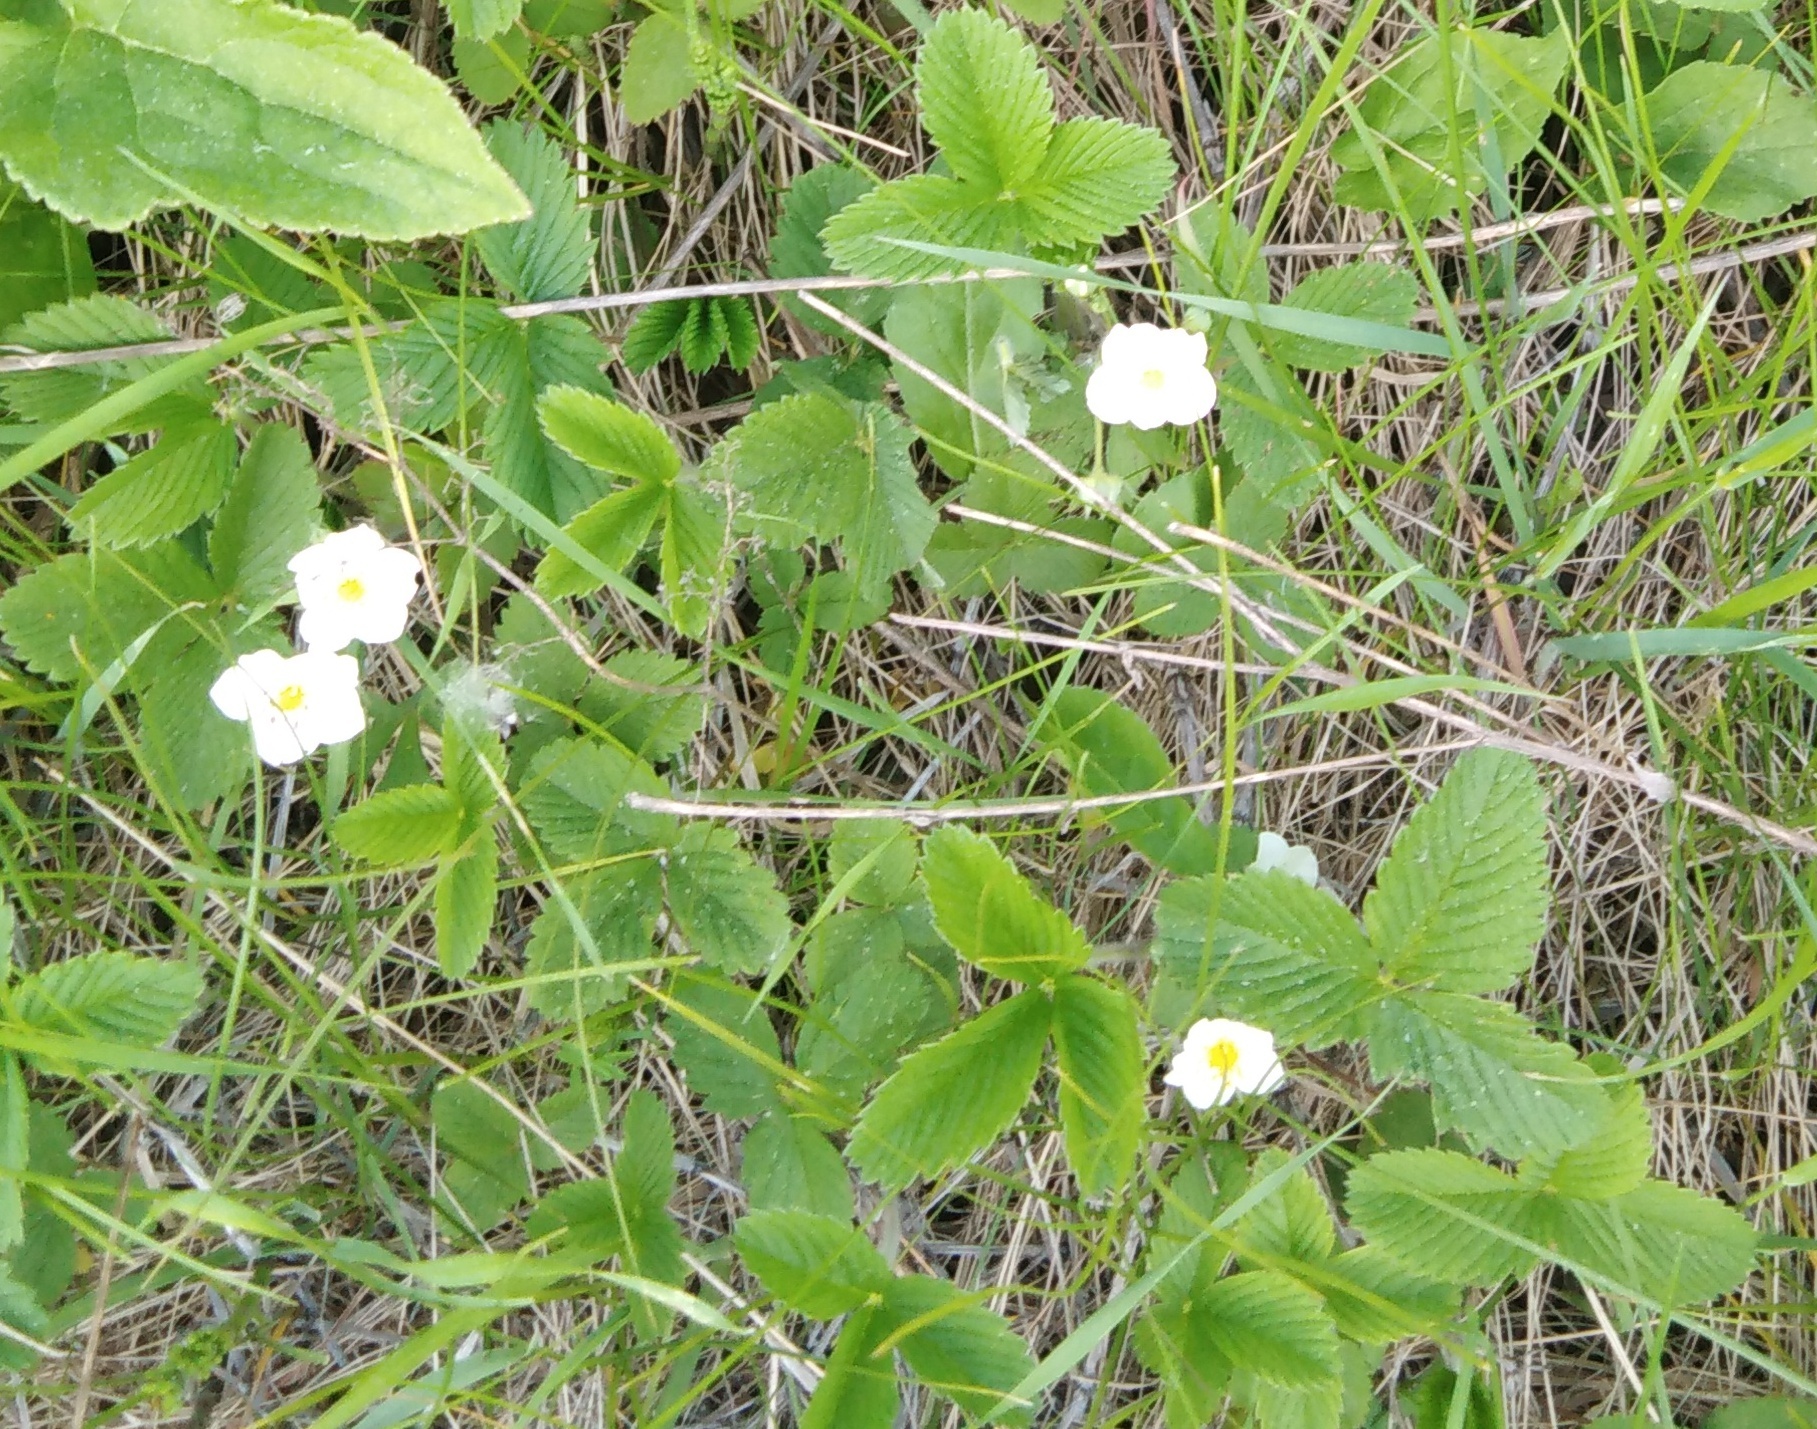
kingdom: Plantae
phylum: Tracheophyta
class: Magnoliopsida
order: Rosales
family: Rosaceae
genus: Fragaria
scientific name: Fragaria viridis
